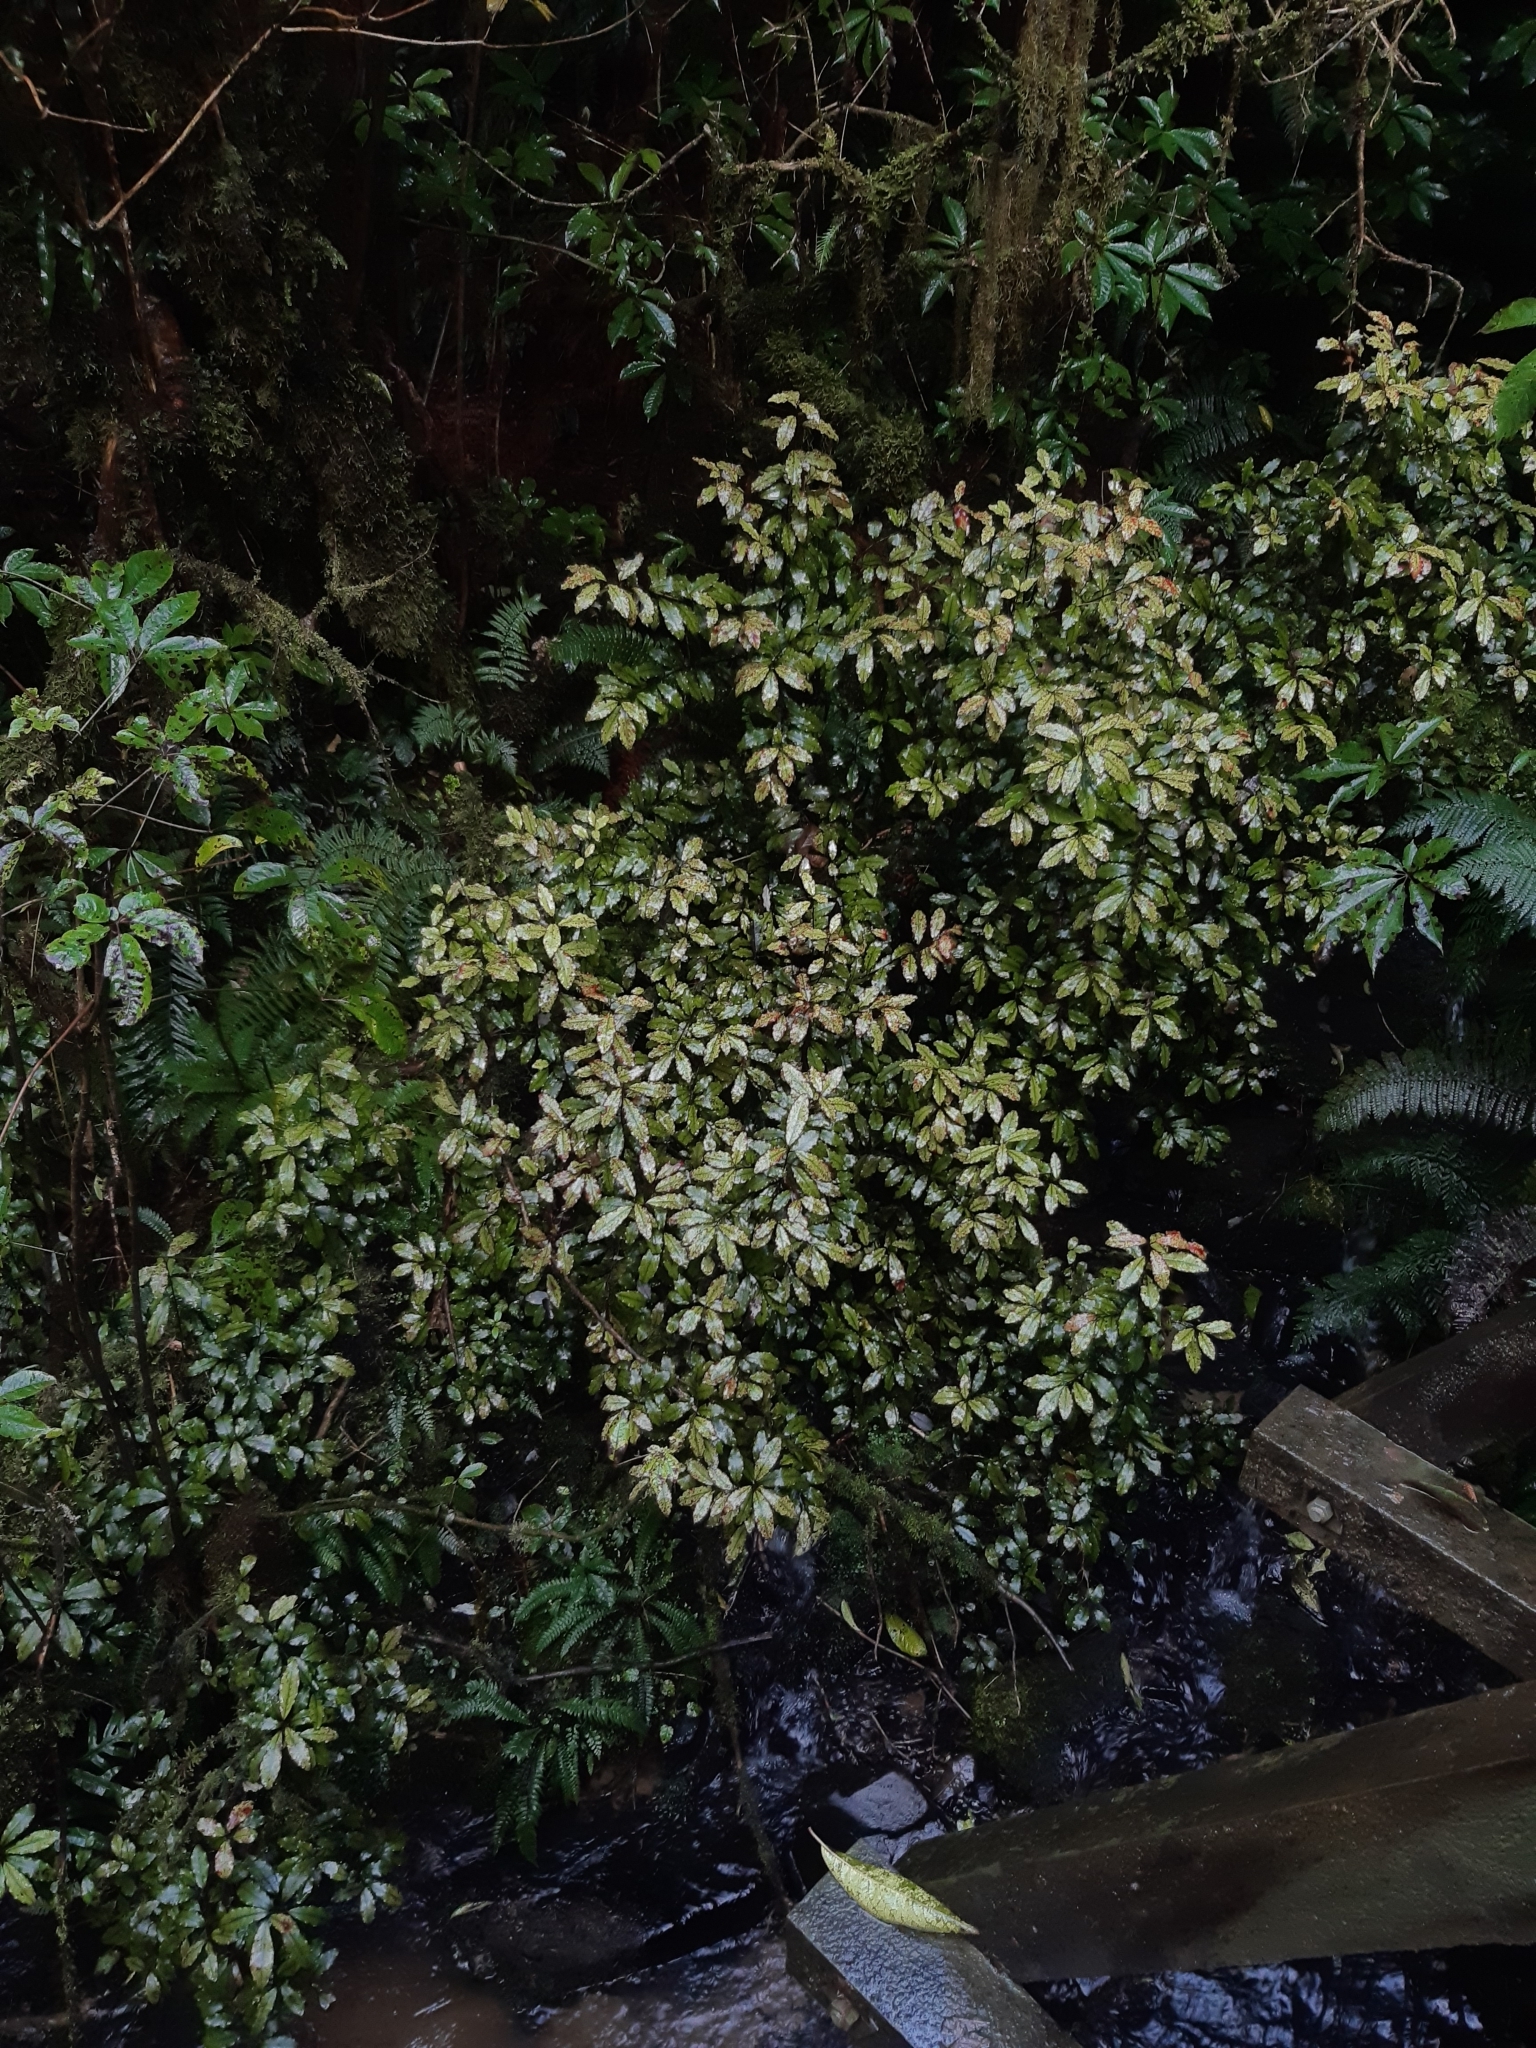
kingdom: Plantae
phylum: Tracheophyta
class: Magnoliopsida
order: Canellales
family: Winteraceae
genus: Pseudowintera
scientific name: Pseudowintera colorata
